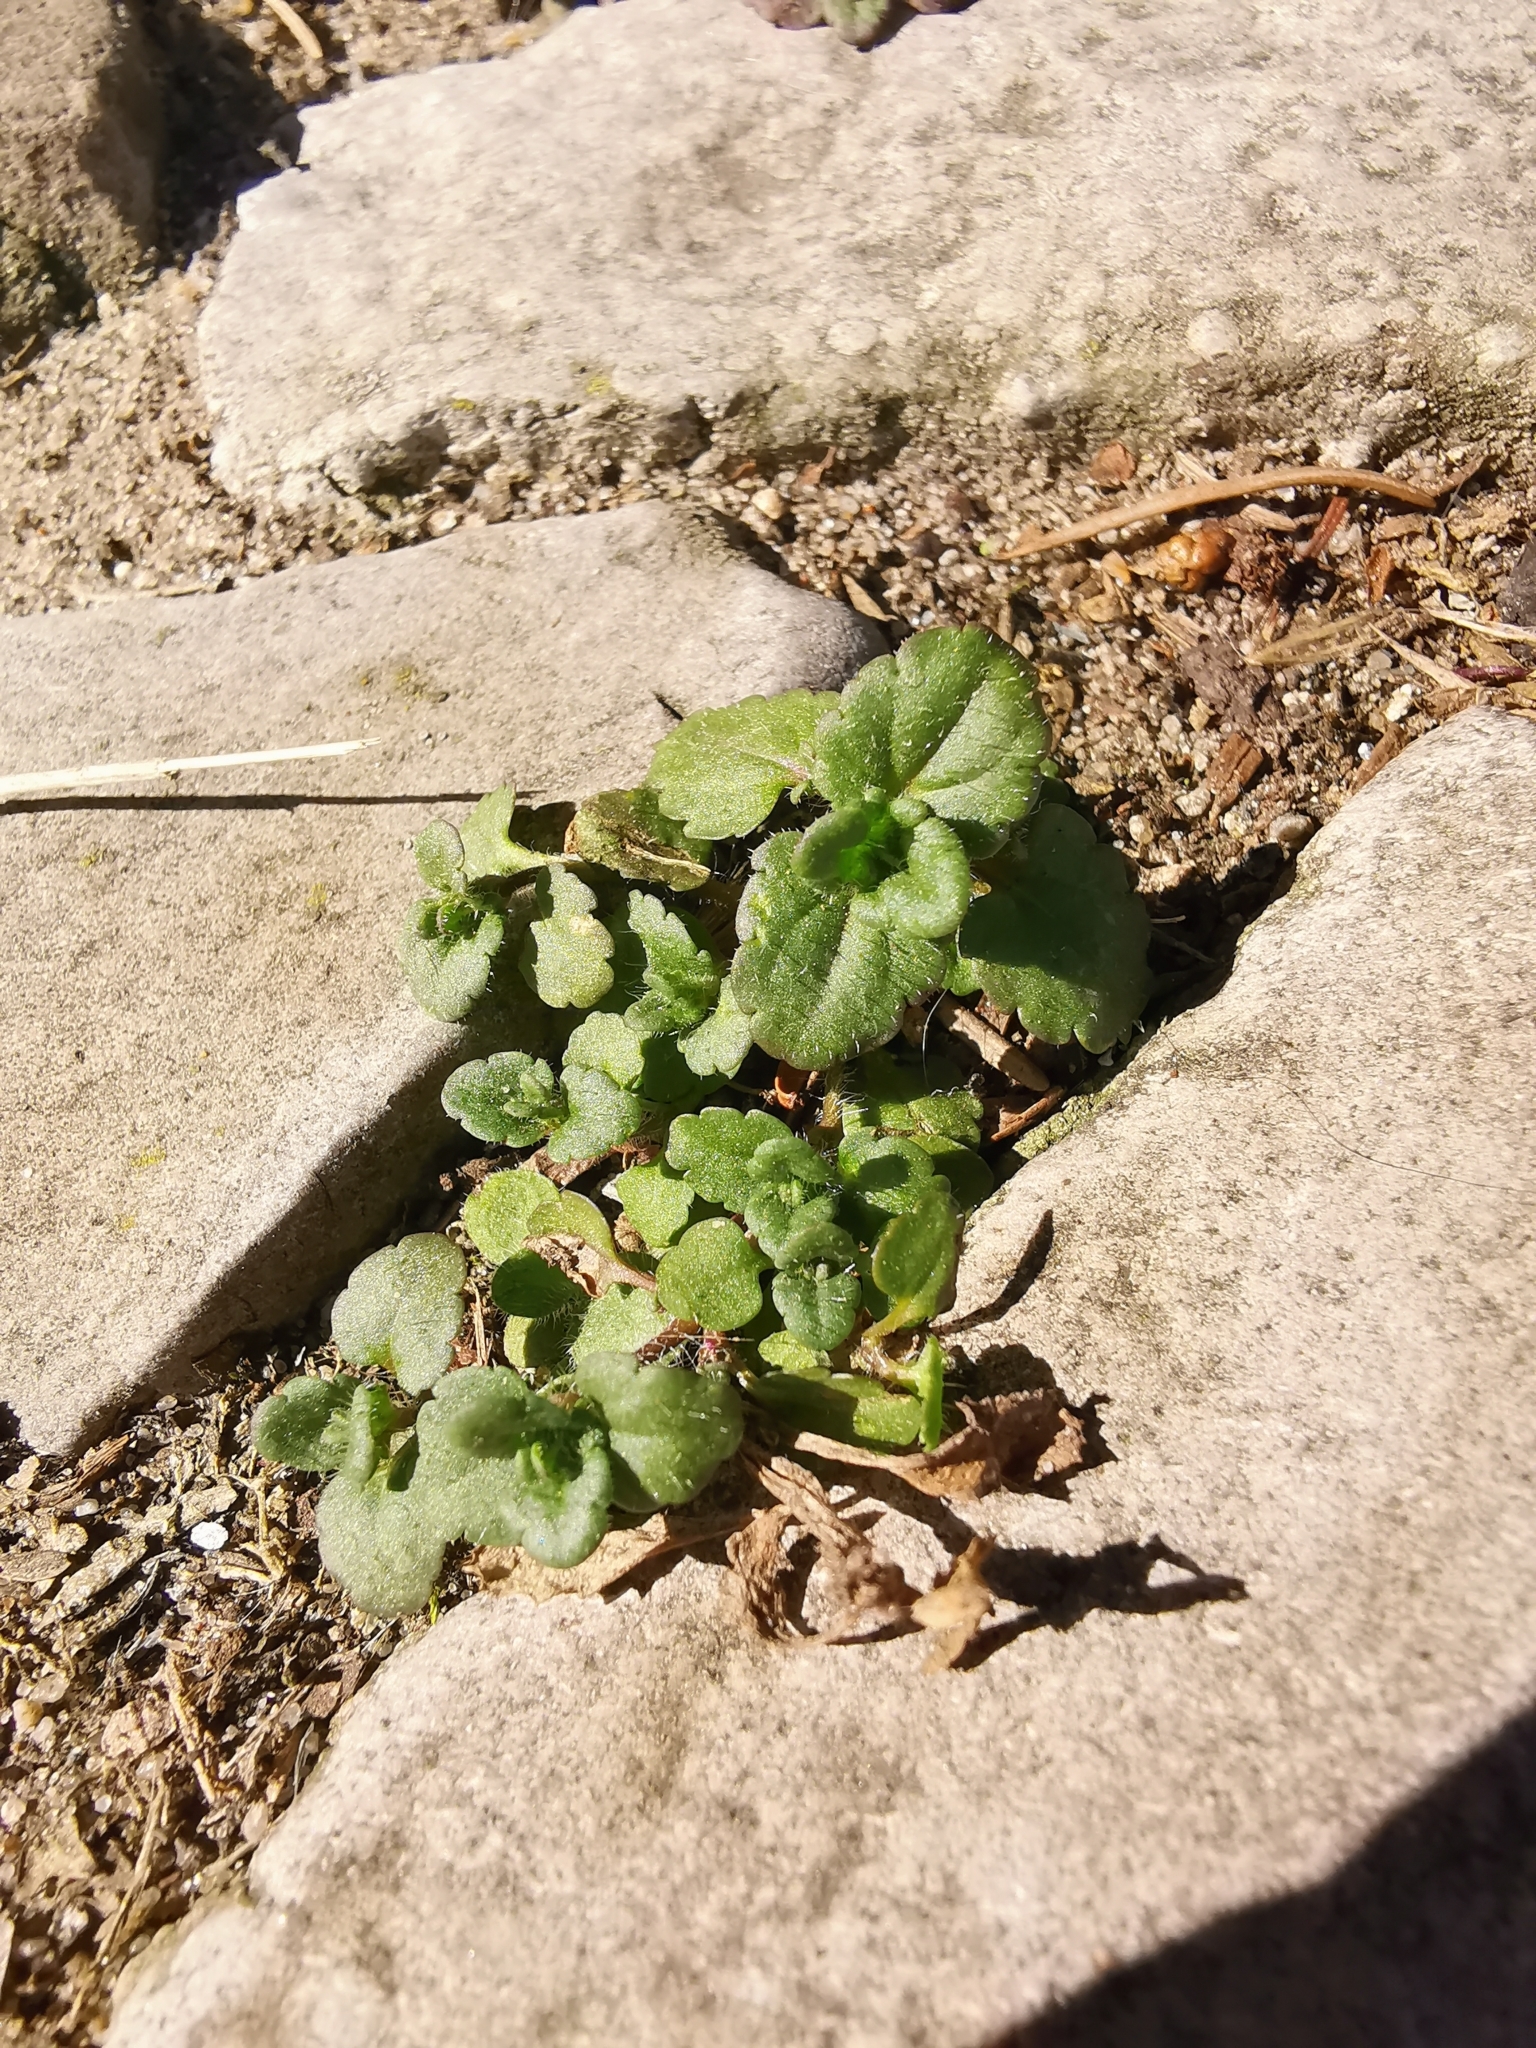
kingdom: Plantae
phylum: Tracheophyta
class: Magnoliopsida
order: Lamiales
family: Plantaginaceae
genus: Veronica
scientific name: Veronica arvensis
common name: Corn speedwell
